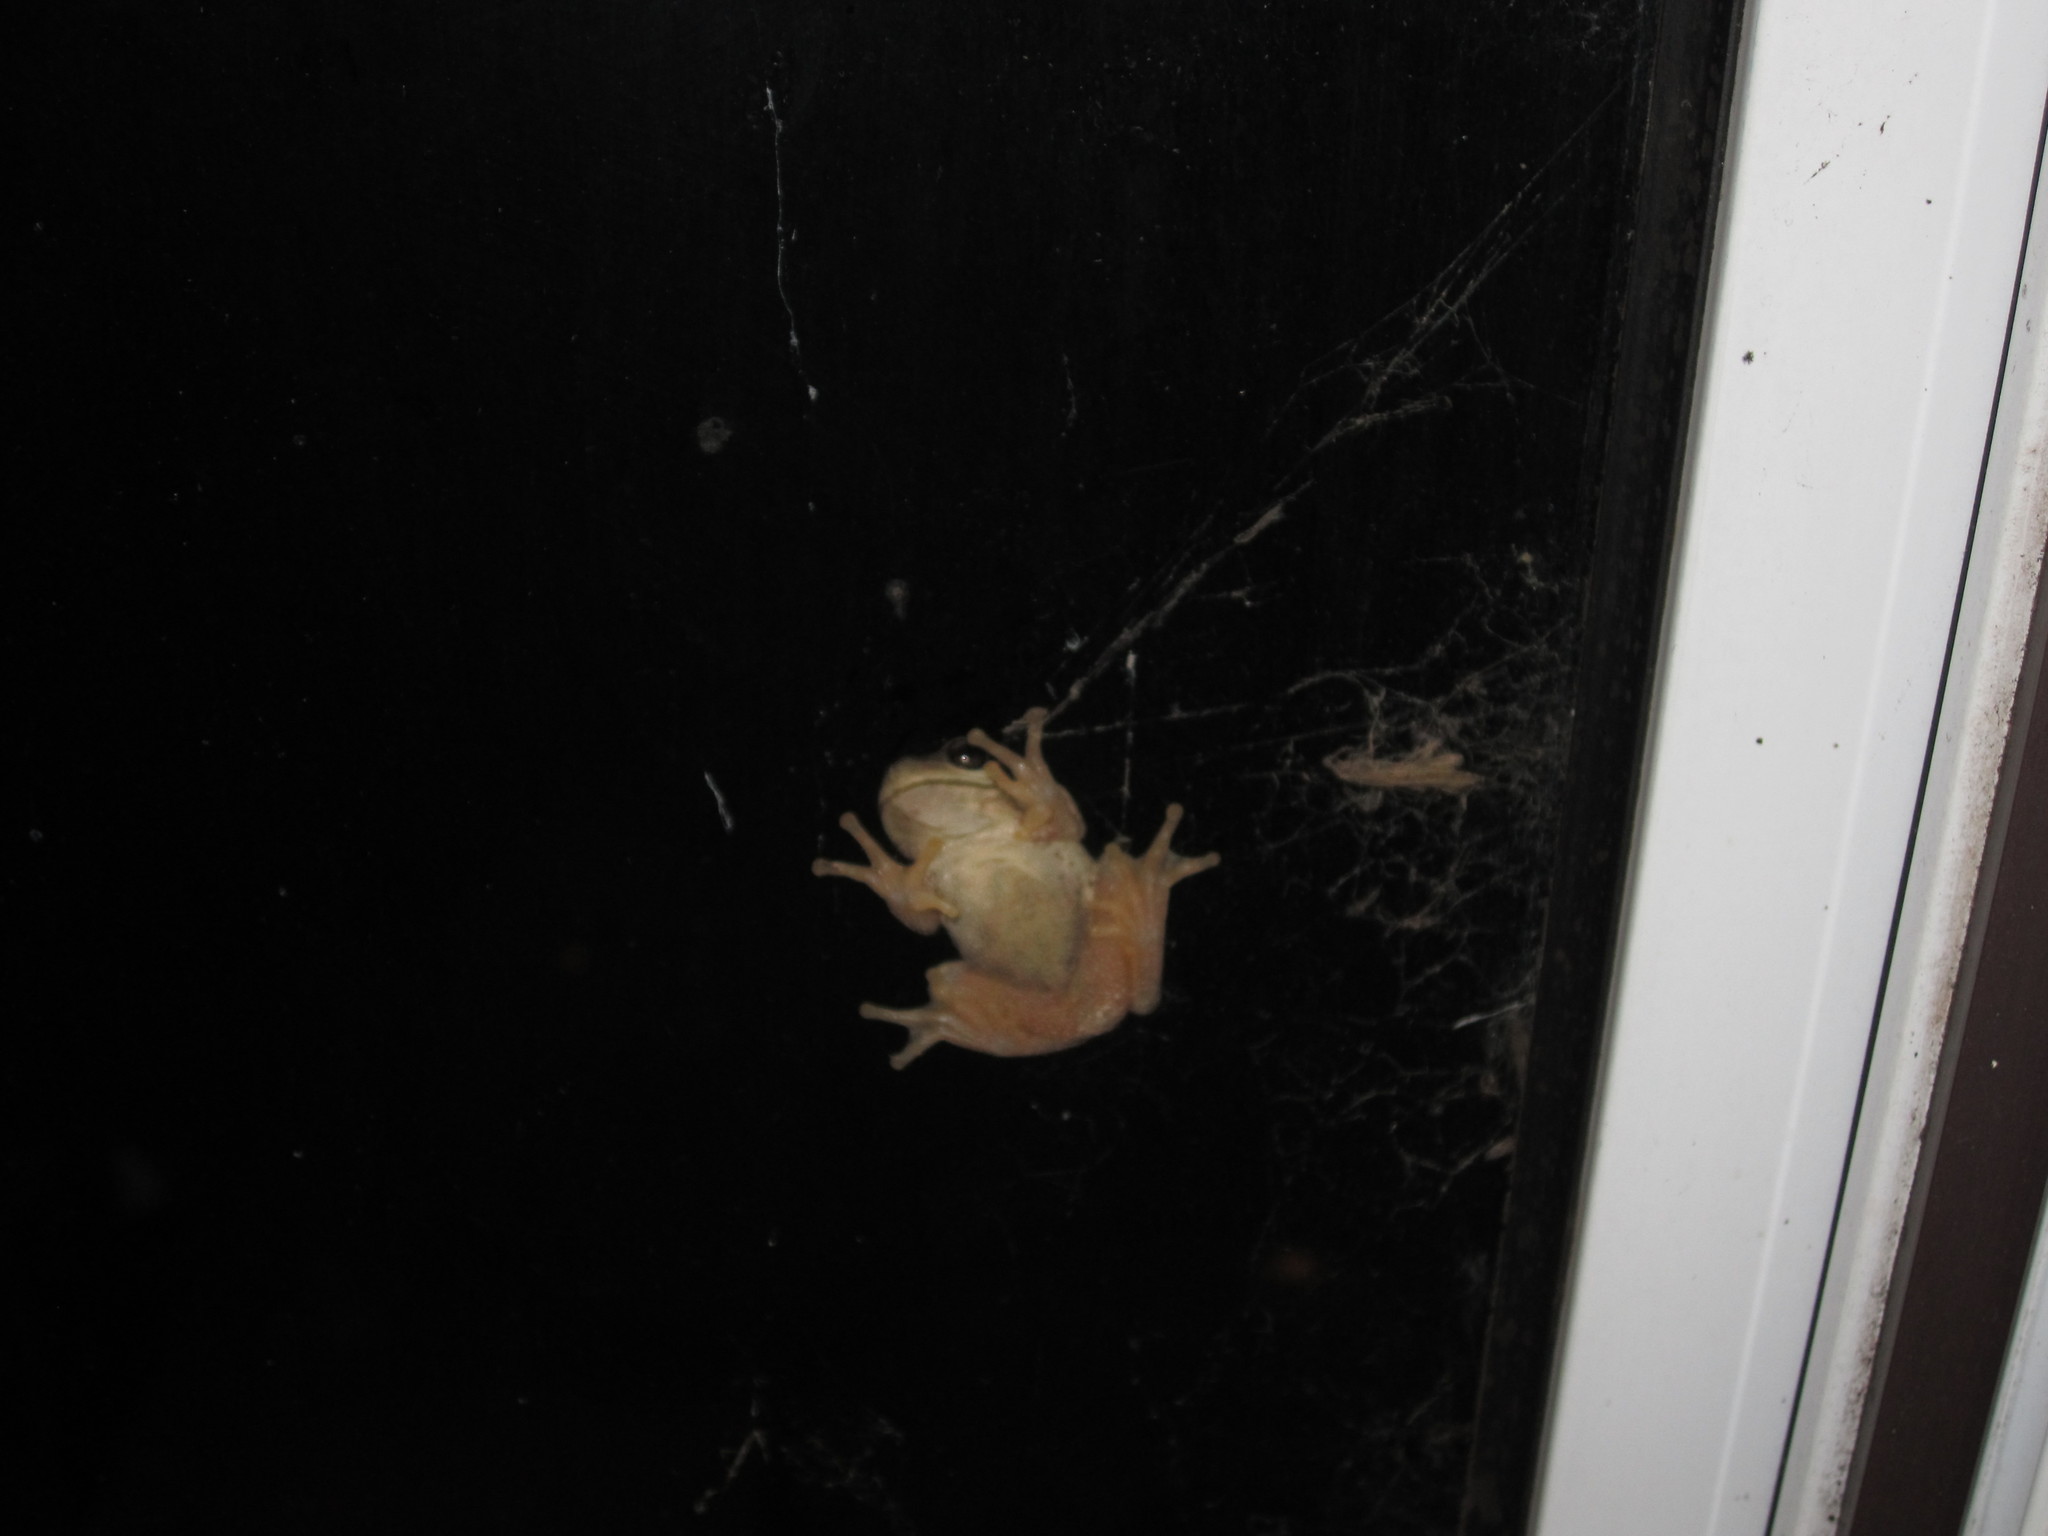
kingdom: Animalia
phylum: Chordata
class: Amphibia
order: Anura
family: Pelodryadidae
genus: Litoria
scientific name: Litoria ewingii
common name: Southern brown tree frog
